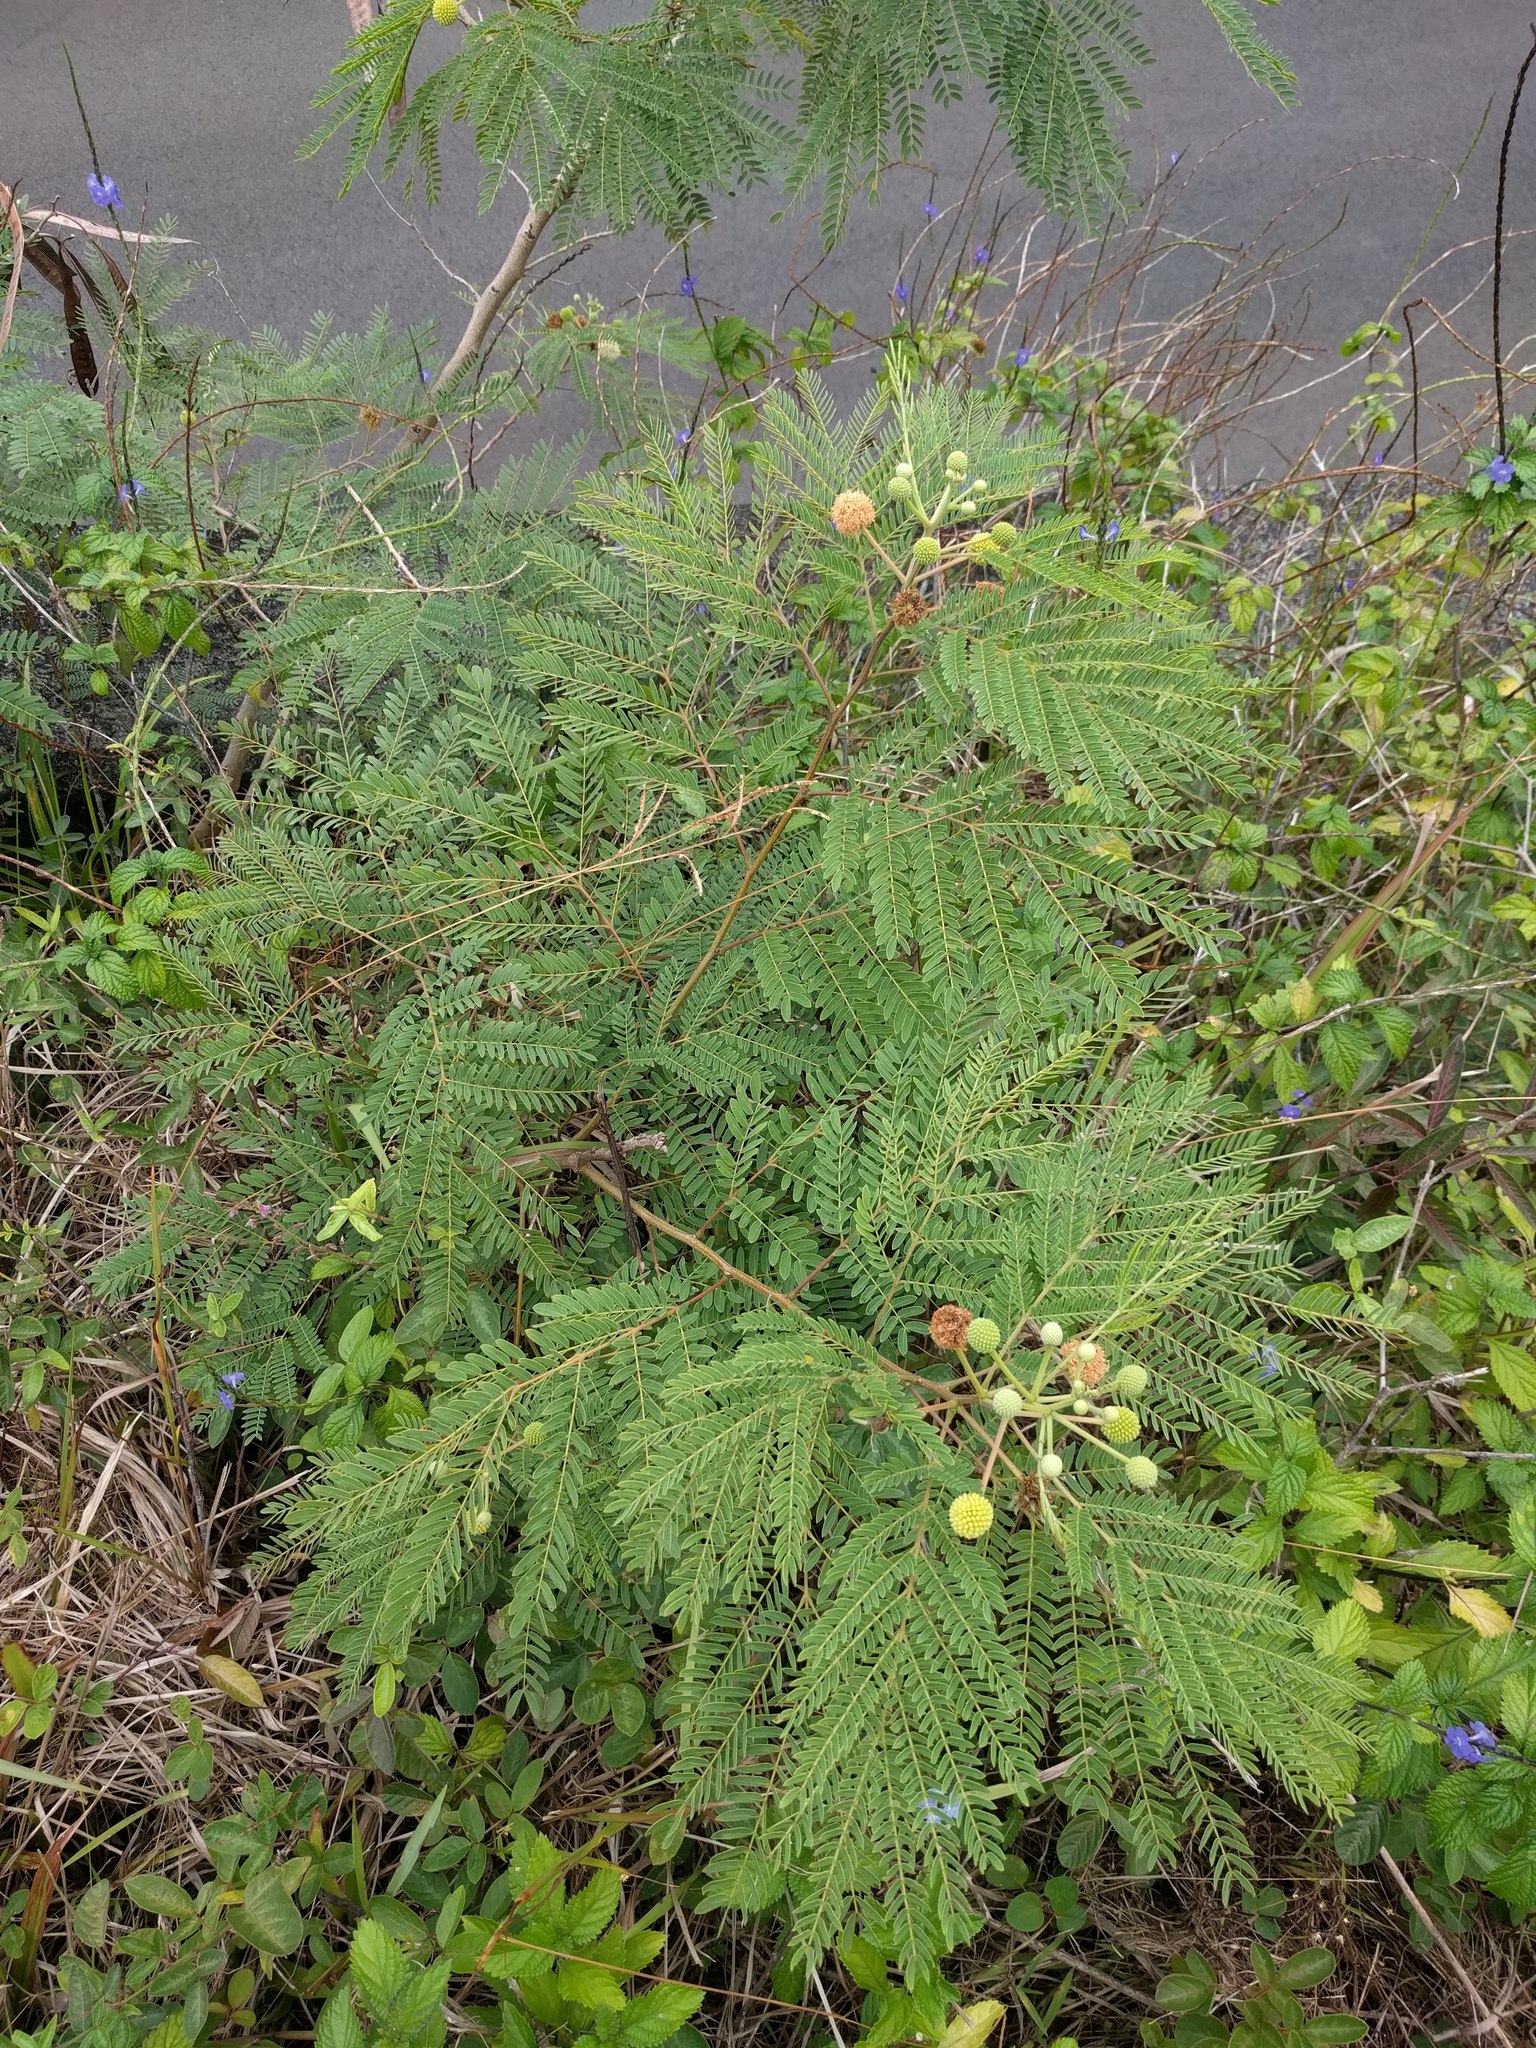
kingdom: Plantae
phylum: Tracheophyta
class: Magnoliopsida
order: Fabales
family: Fabaceae
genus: Leucaena
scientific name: Leucaena leucocephala
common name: White leadtree
